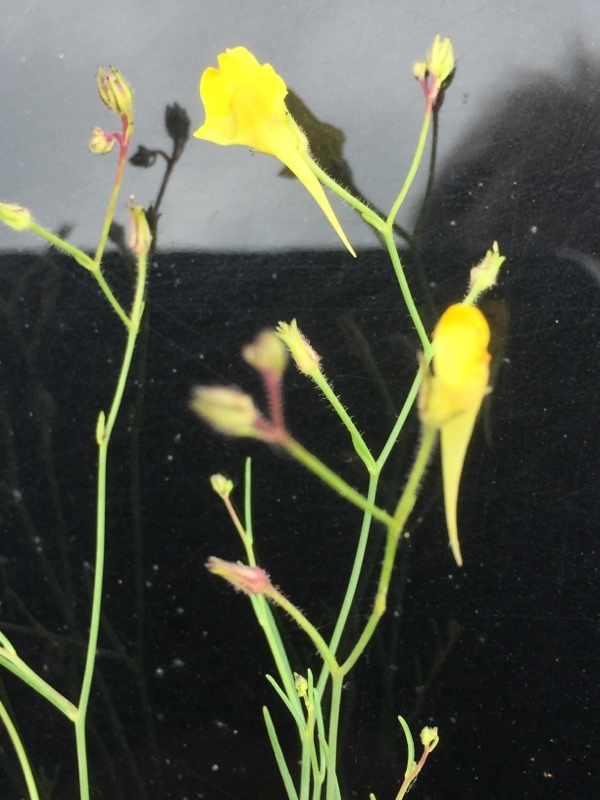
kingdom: Plantae
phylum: Tracheophyta
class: Magnoliopsida
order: Lamiales
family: Plantaginaceae
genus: Linaria
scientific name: Linaria spartea
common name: Ballast toadflax
